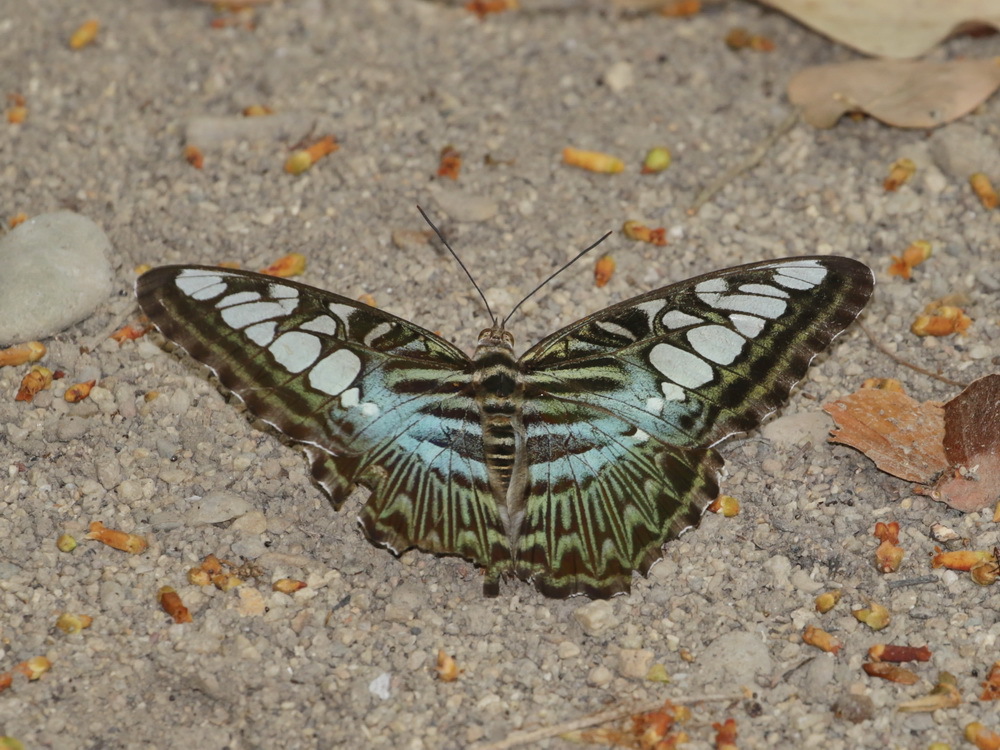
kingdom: Animalia
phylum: Arthropoda
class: Insecta
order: Lepidoptera
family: Nymphalidae
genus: Kallima
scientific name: Kallima sylvia
